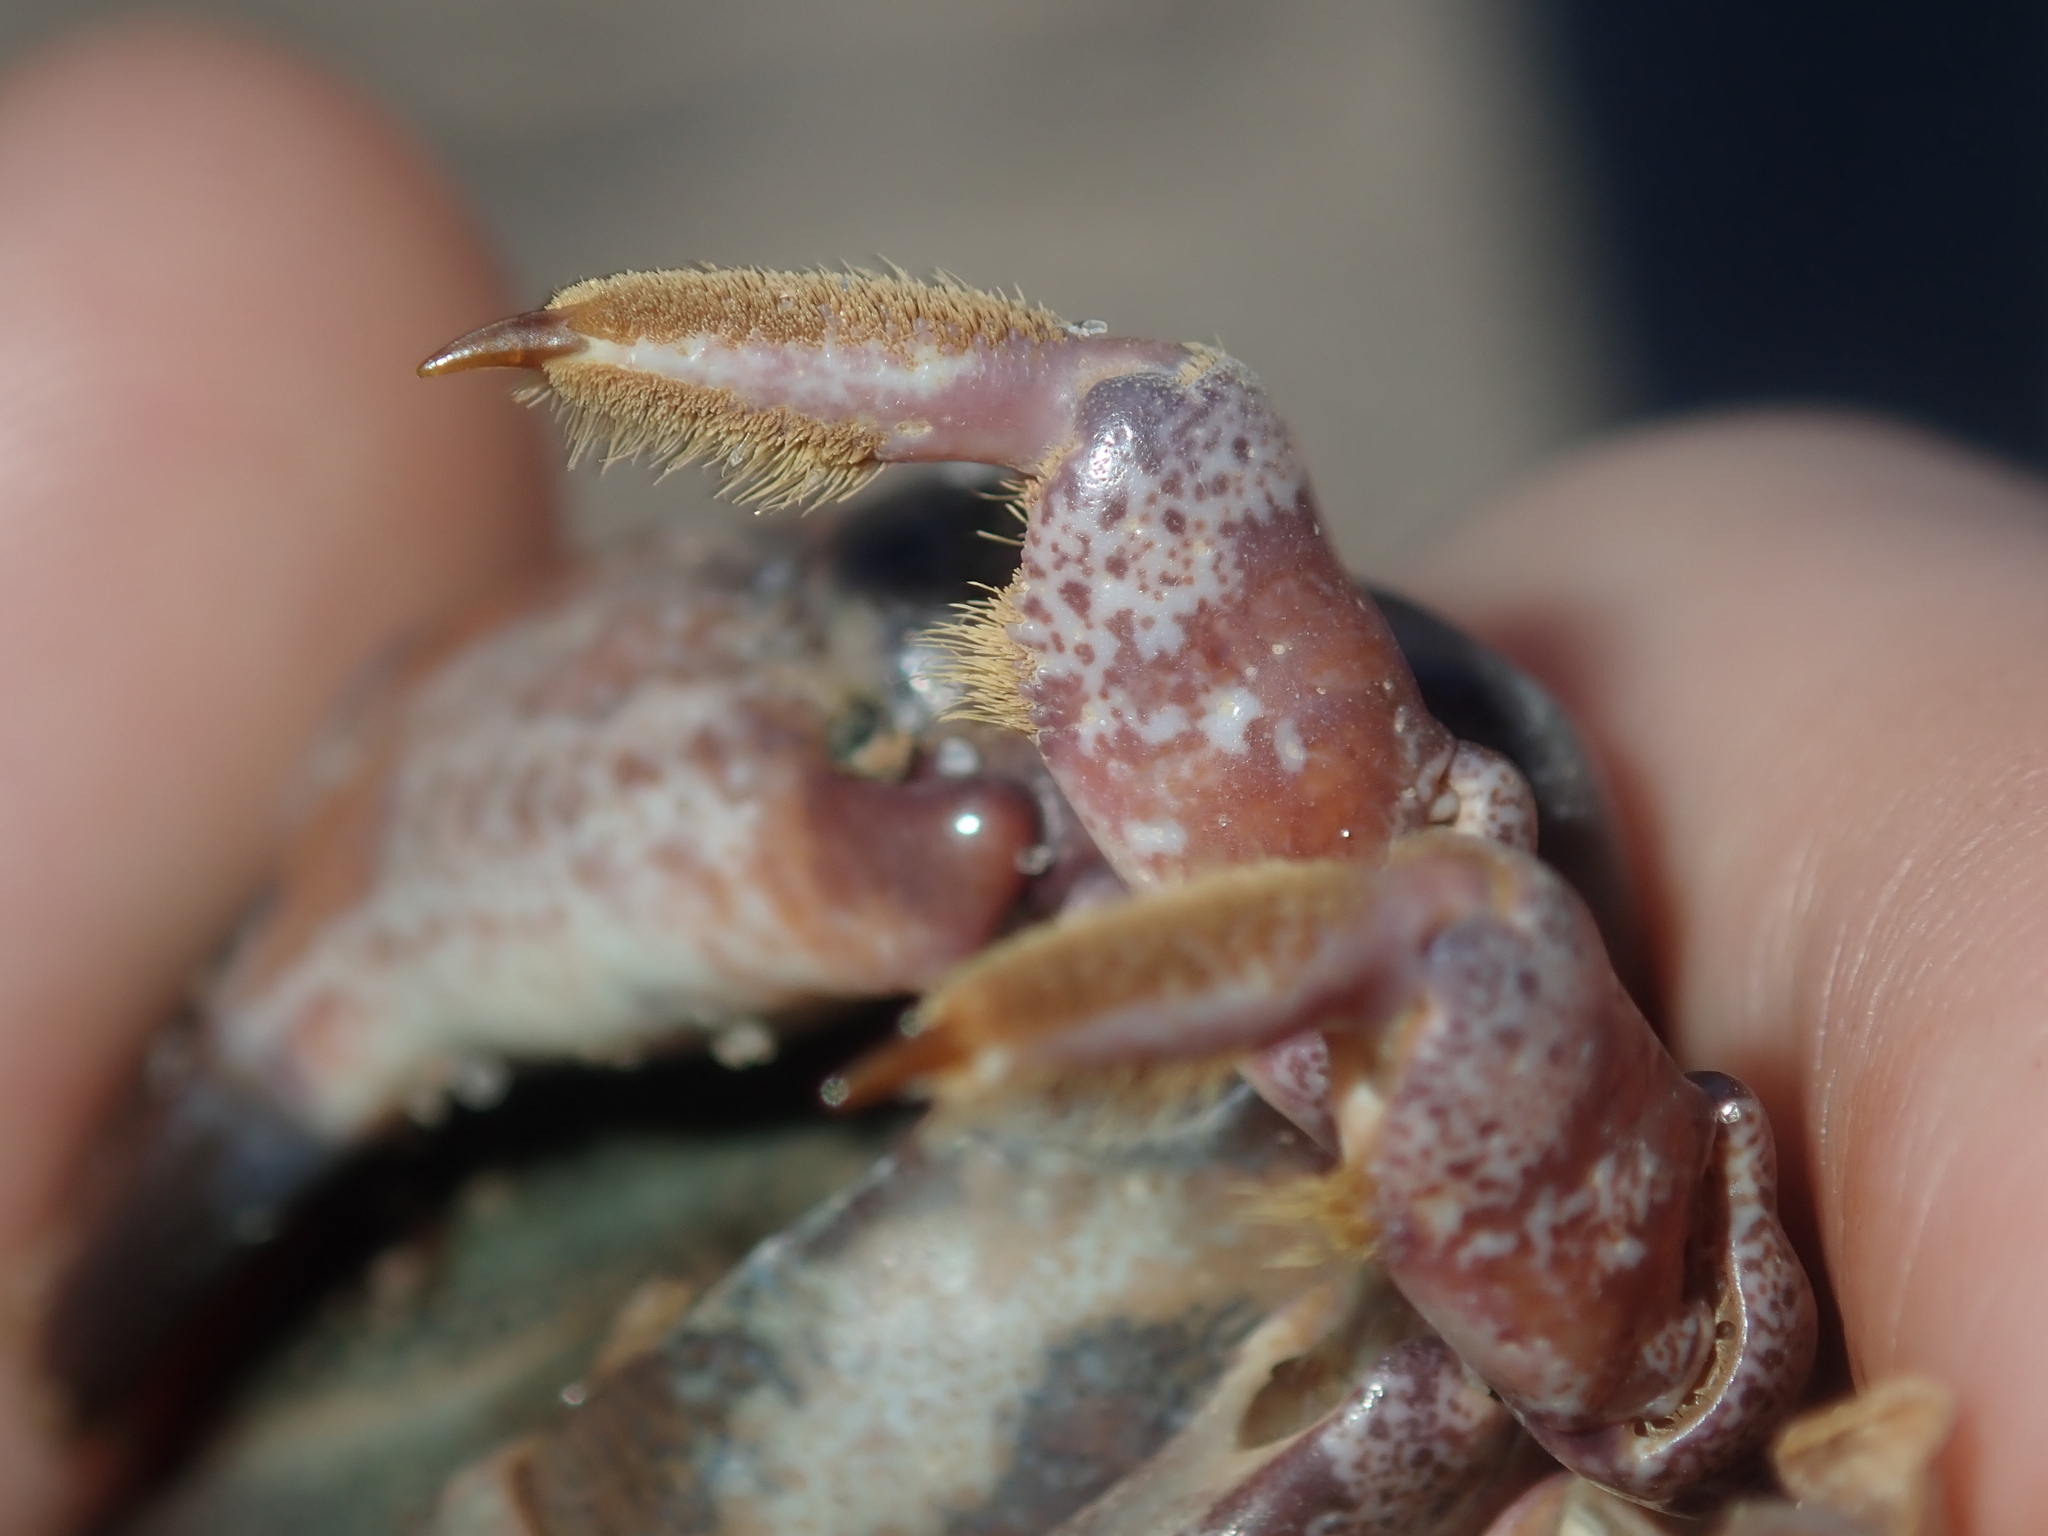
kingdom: Animalia
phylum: Arthropoda
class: Malacostraca
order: Decapoda
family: Xanthidae
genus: Euxanthus
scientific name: Euxanthus exsculptus
